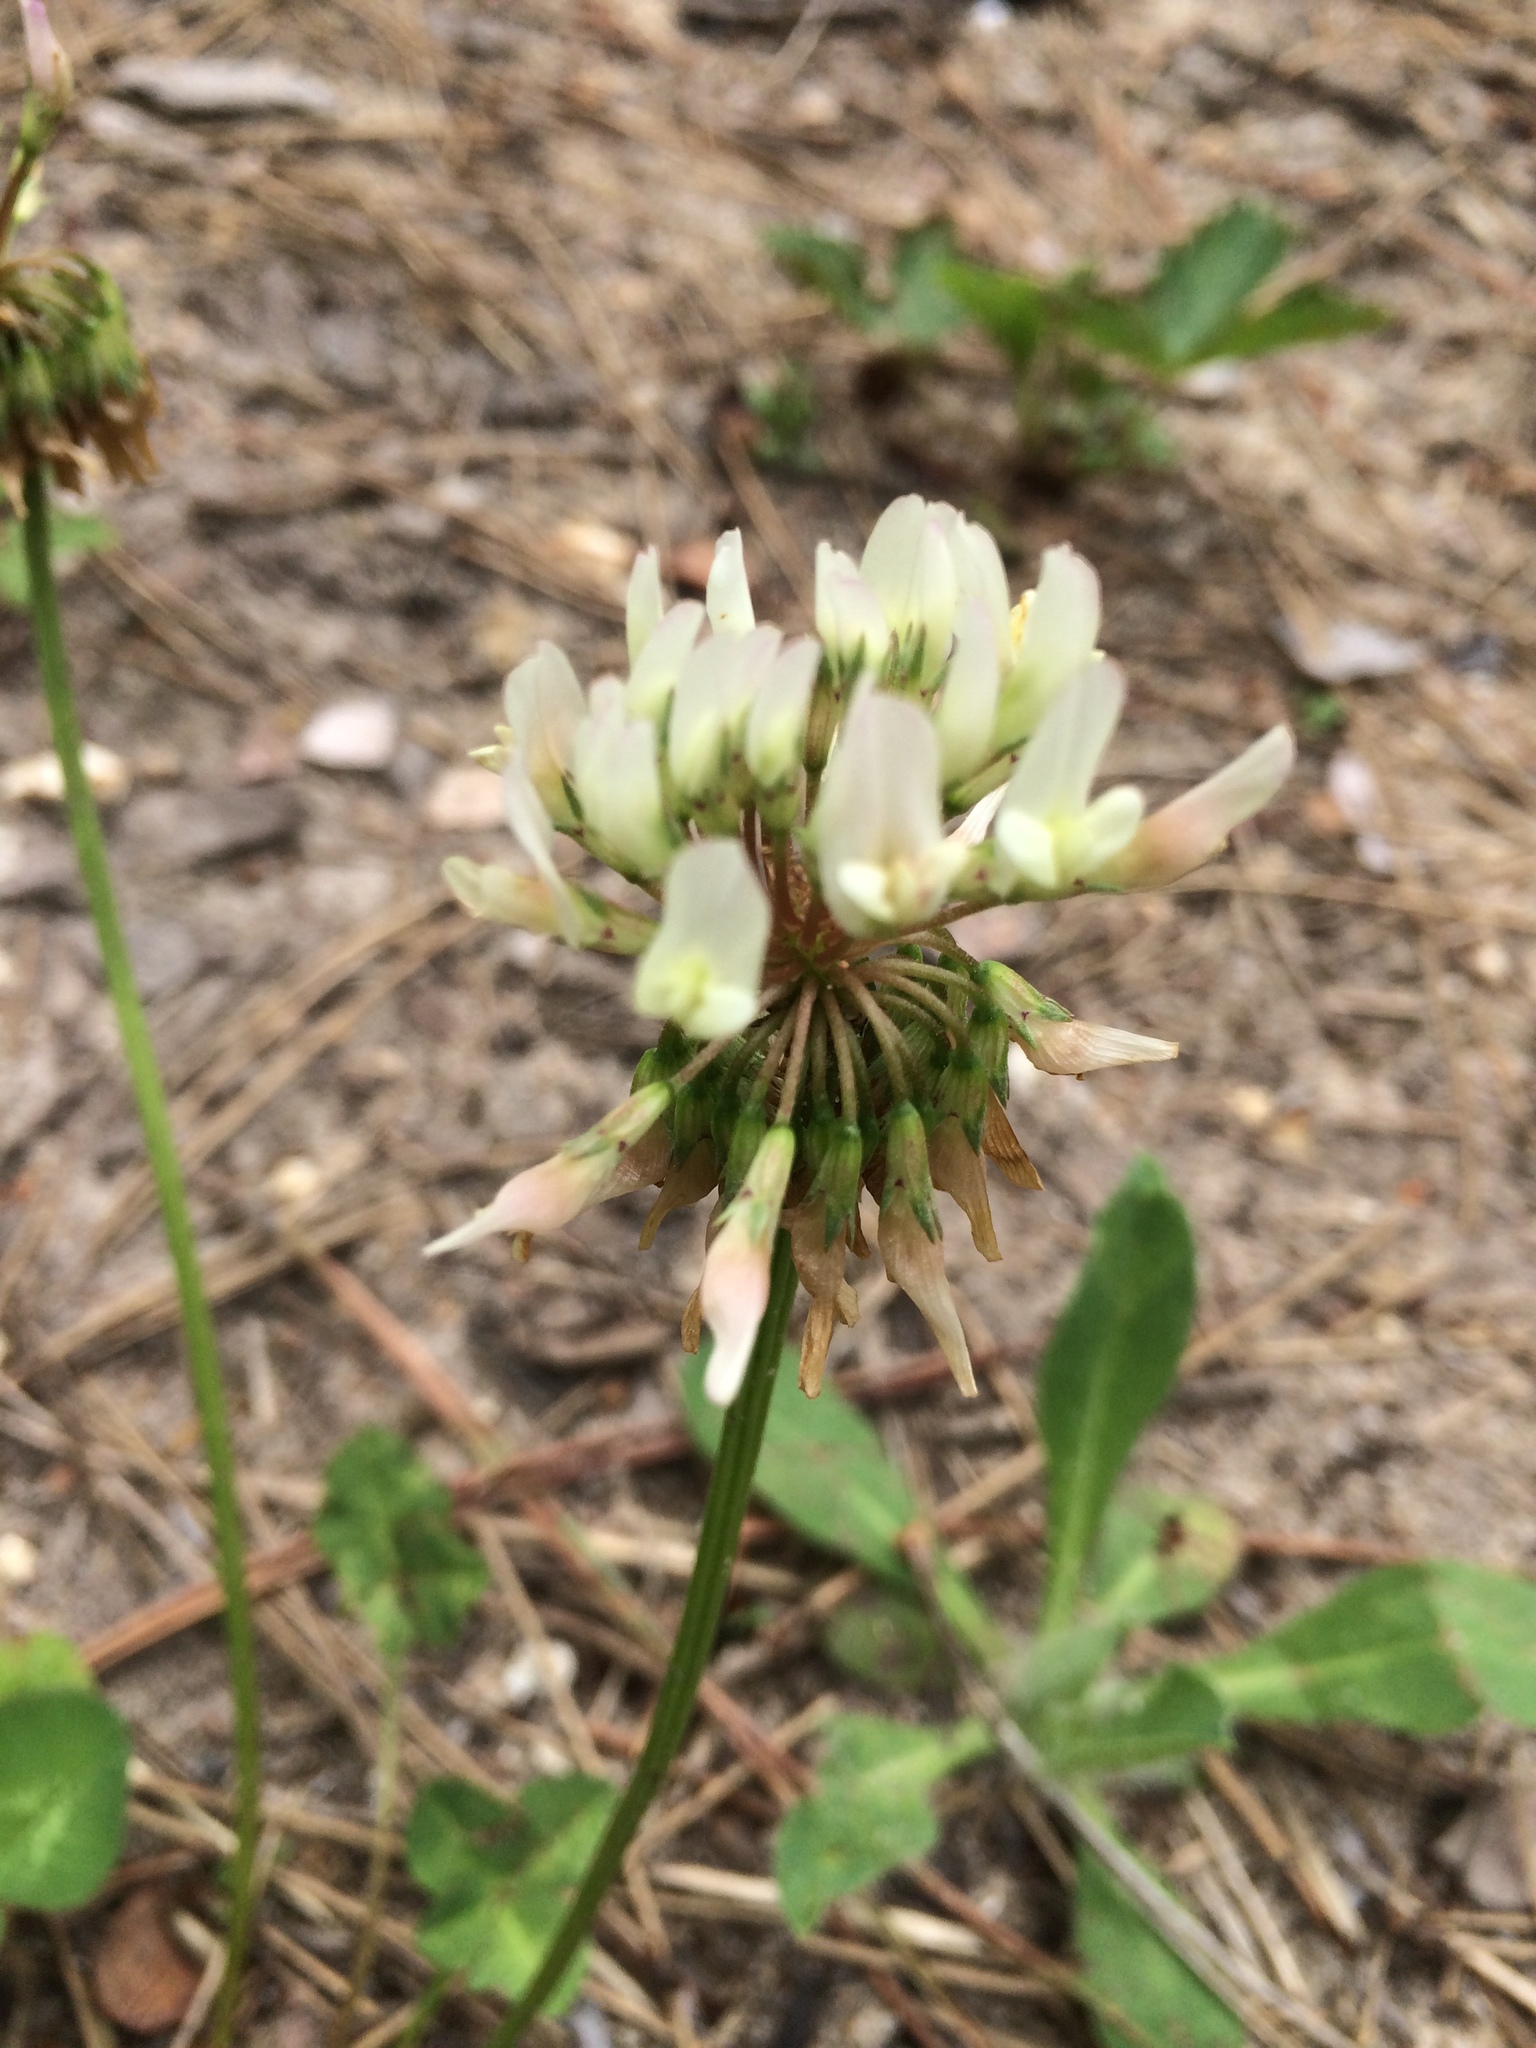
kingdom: Plantae
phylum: Tracheophyta
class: Magnoliopsida
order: Fabales
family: Fabaceae
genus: Trifolium
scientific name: Trifolium repens
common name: White clover
